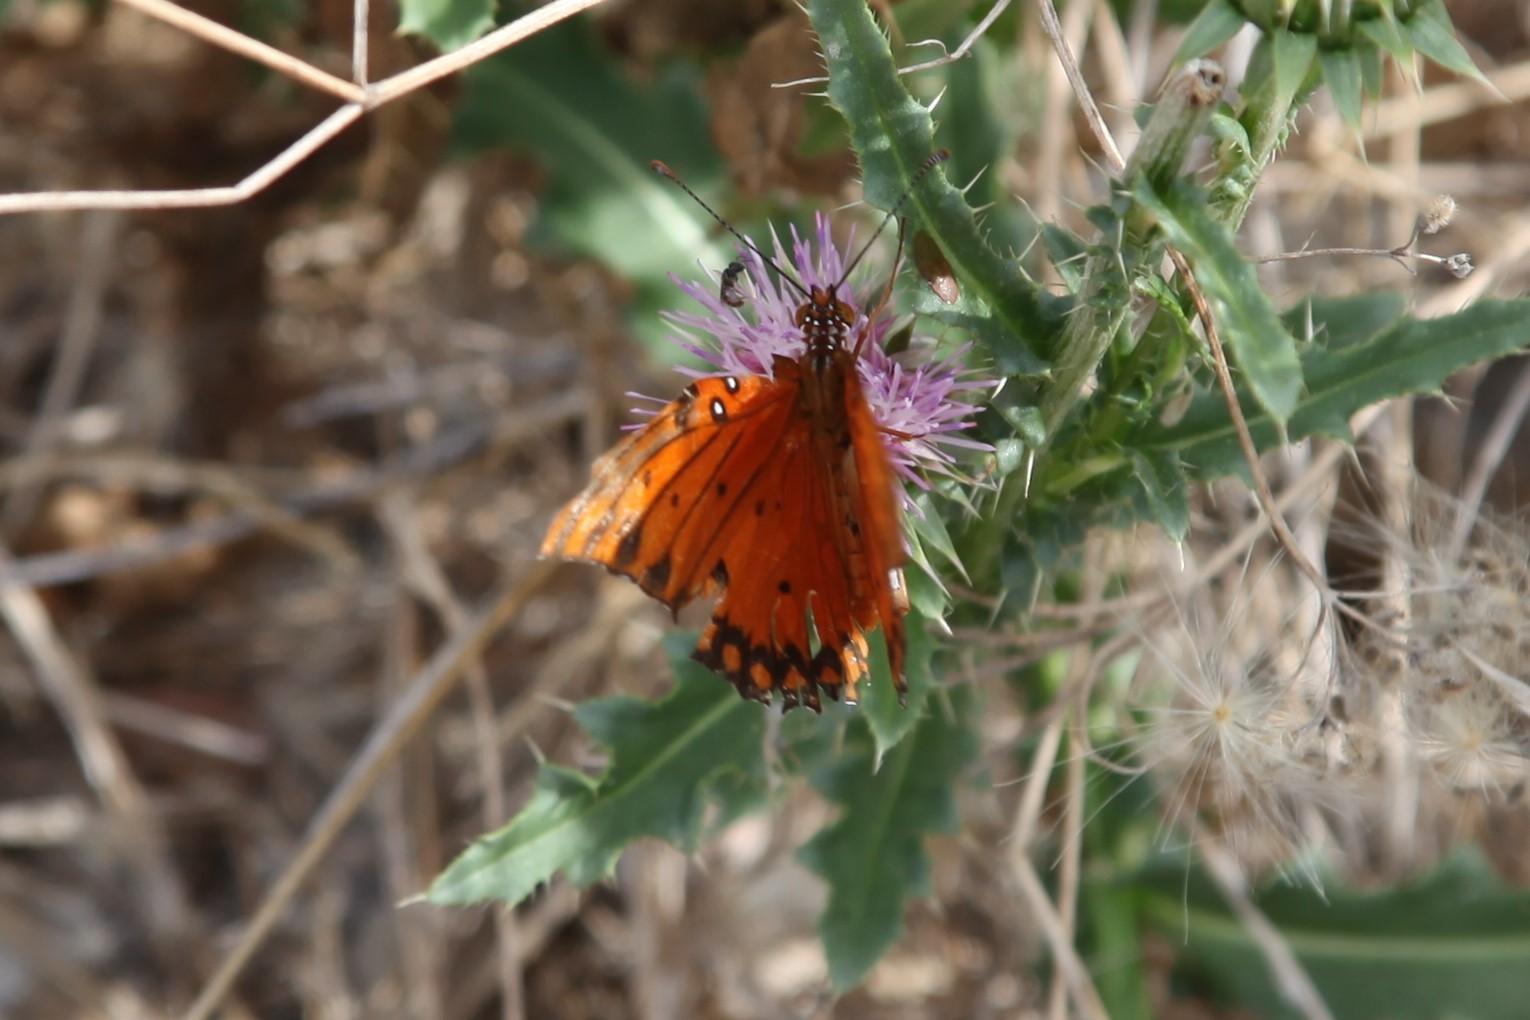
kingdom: Animalia
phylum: Arthropoda
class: Insecta
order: Lepidoptera
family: Nymphalidae
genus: Dione
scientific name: Dione vanillae
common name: Gulf fritillary
